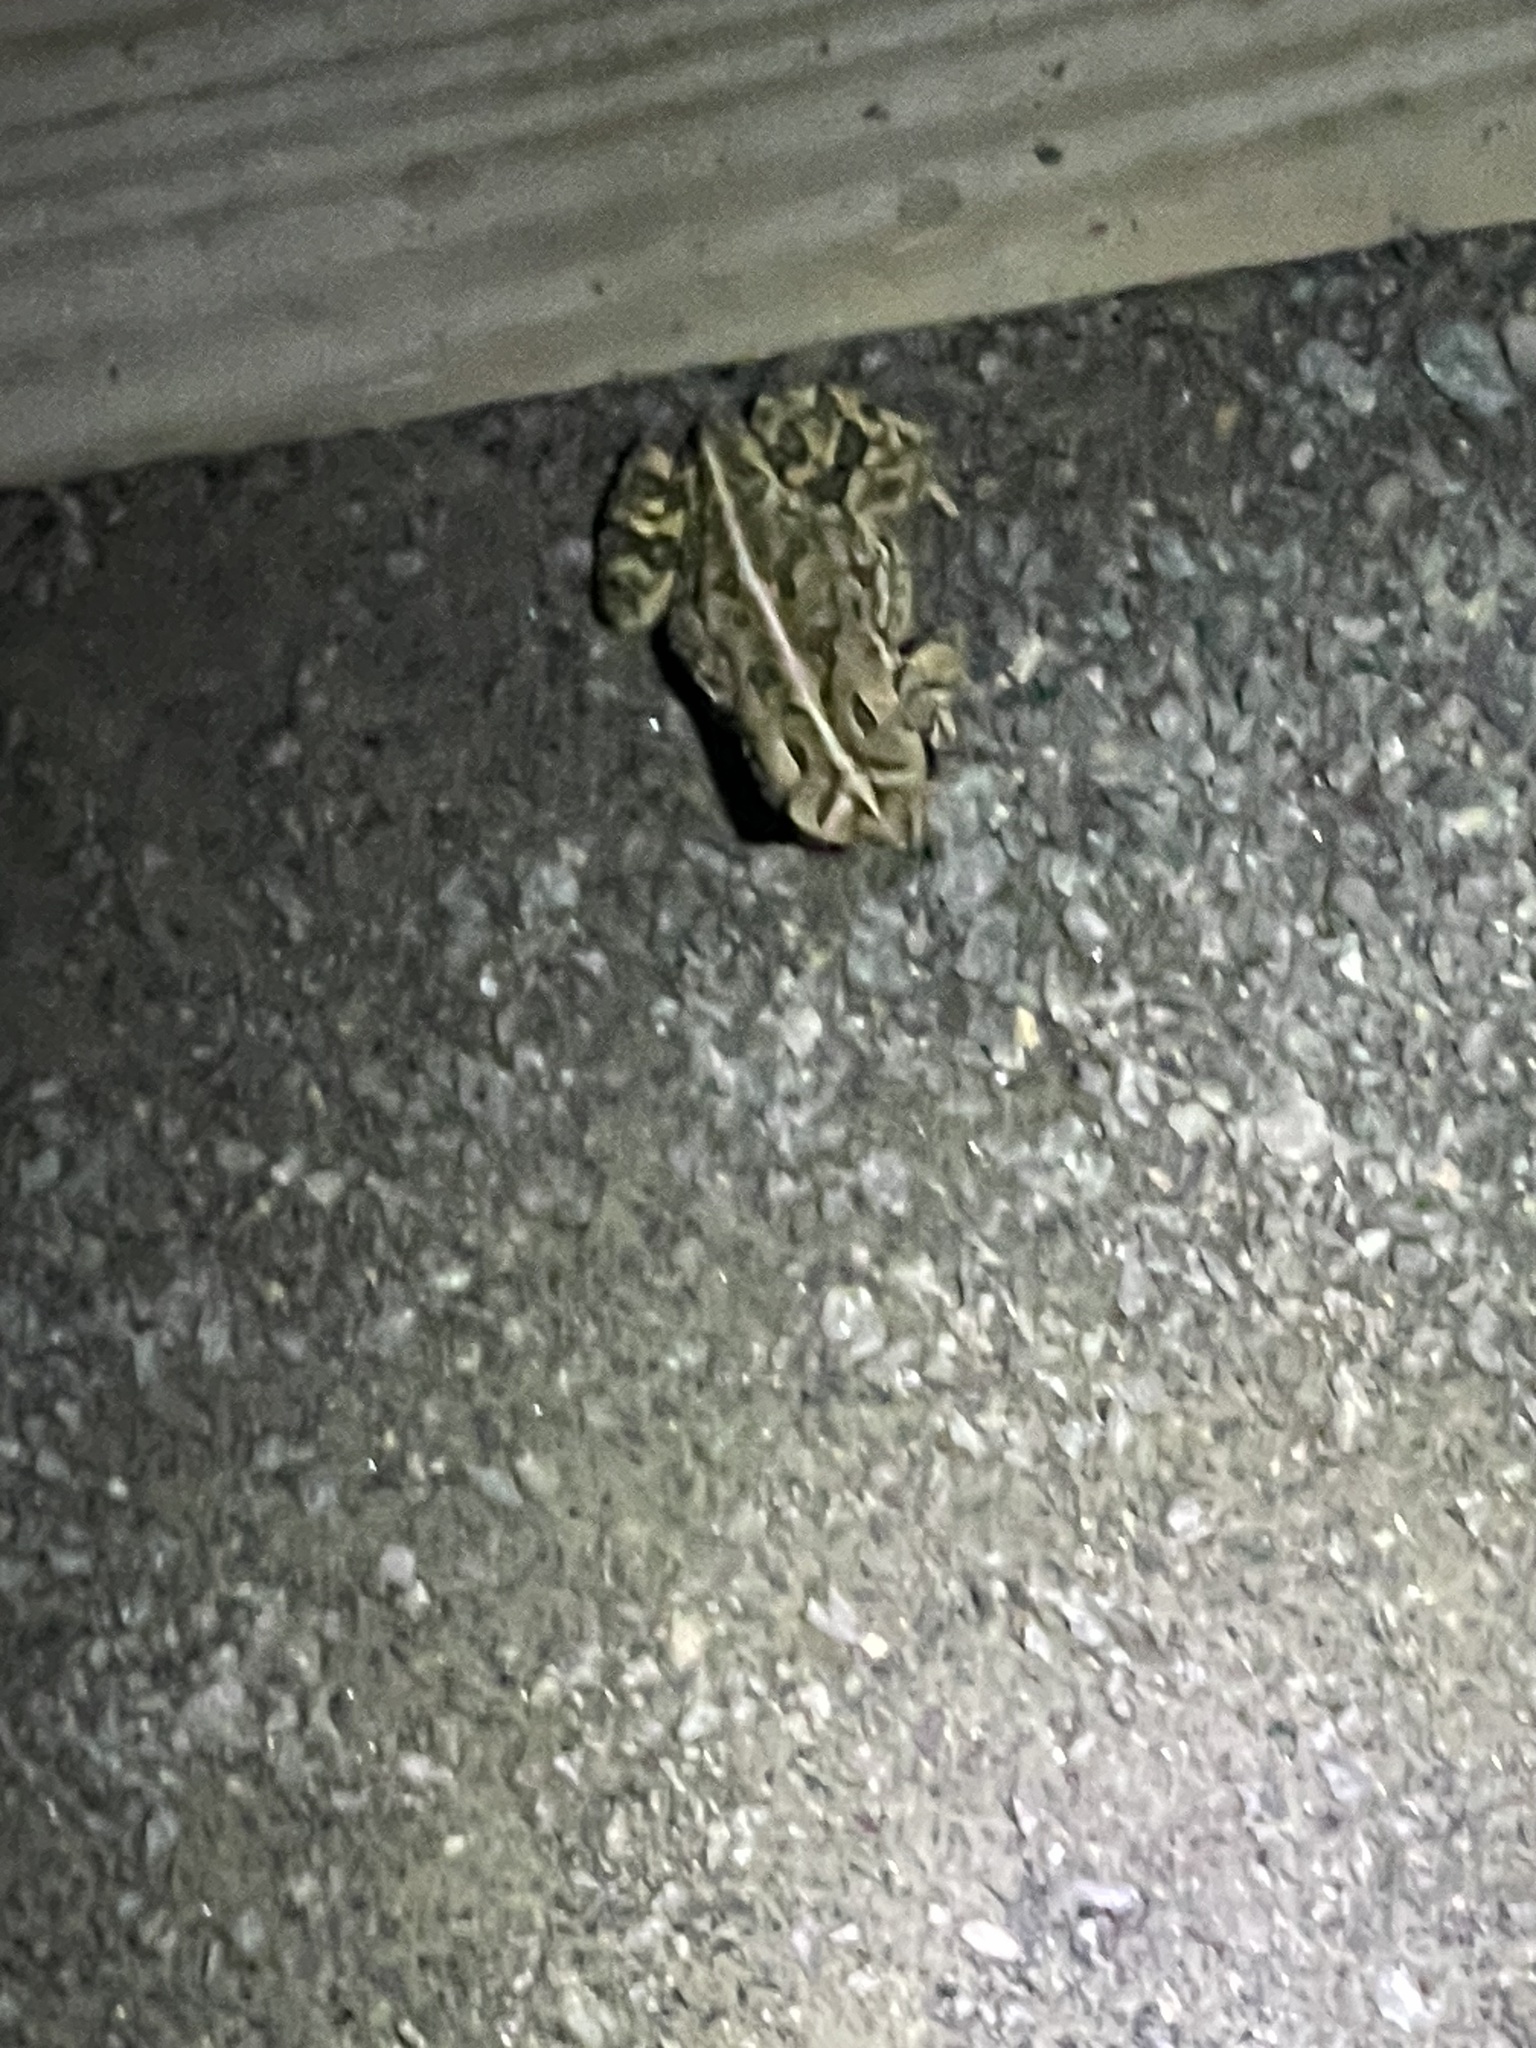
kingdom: Animalia
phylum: Chordata
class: Amphibia
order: Anura
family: Bufonidae
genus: Anaxyrus
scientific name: Anaxyrus fowleri
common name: Fowler's toad
